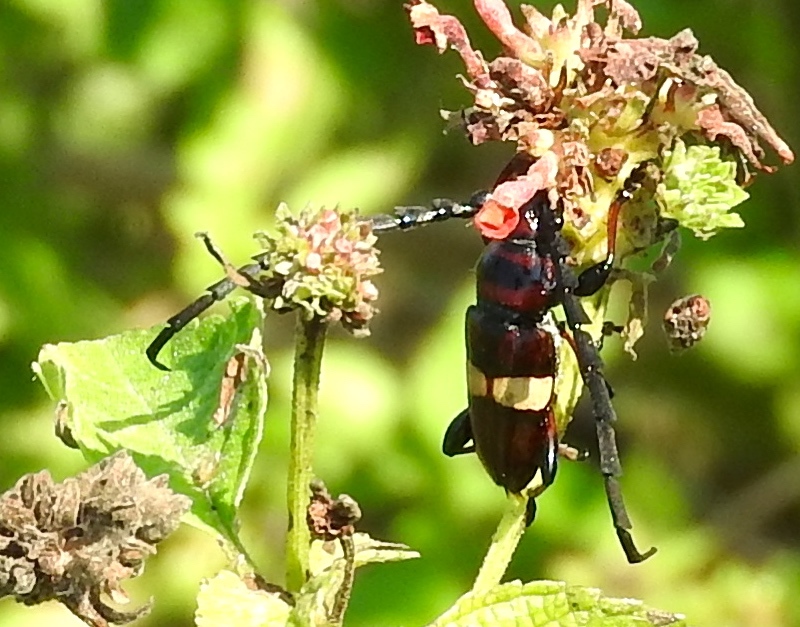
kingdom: Animalia
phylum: Arthropoda
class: Insecta
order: Coleoptera
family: Cerambycidae
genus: Lissonotus
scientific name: Lissonotus flavocinctus
